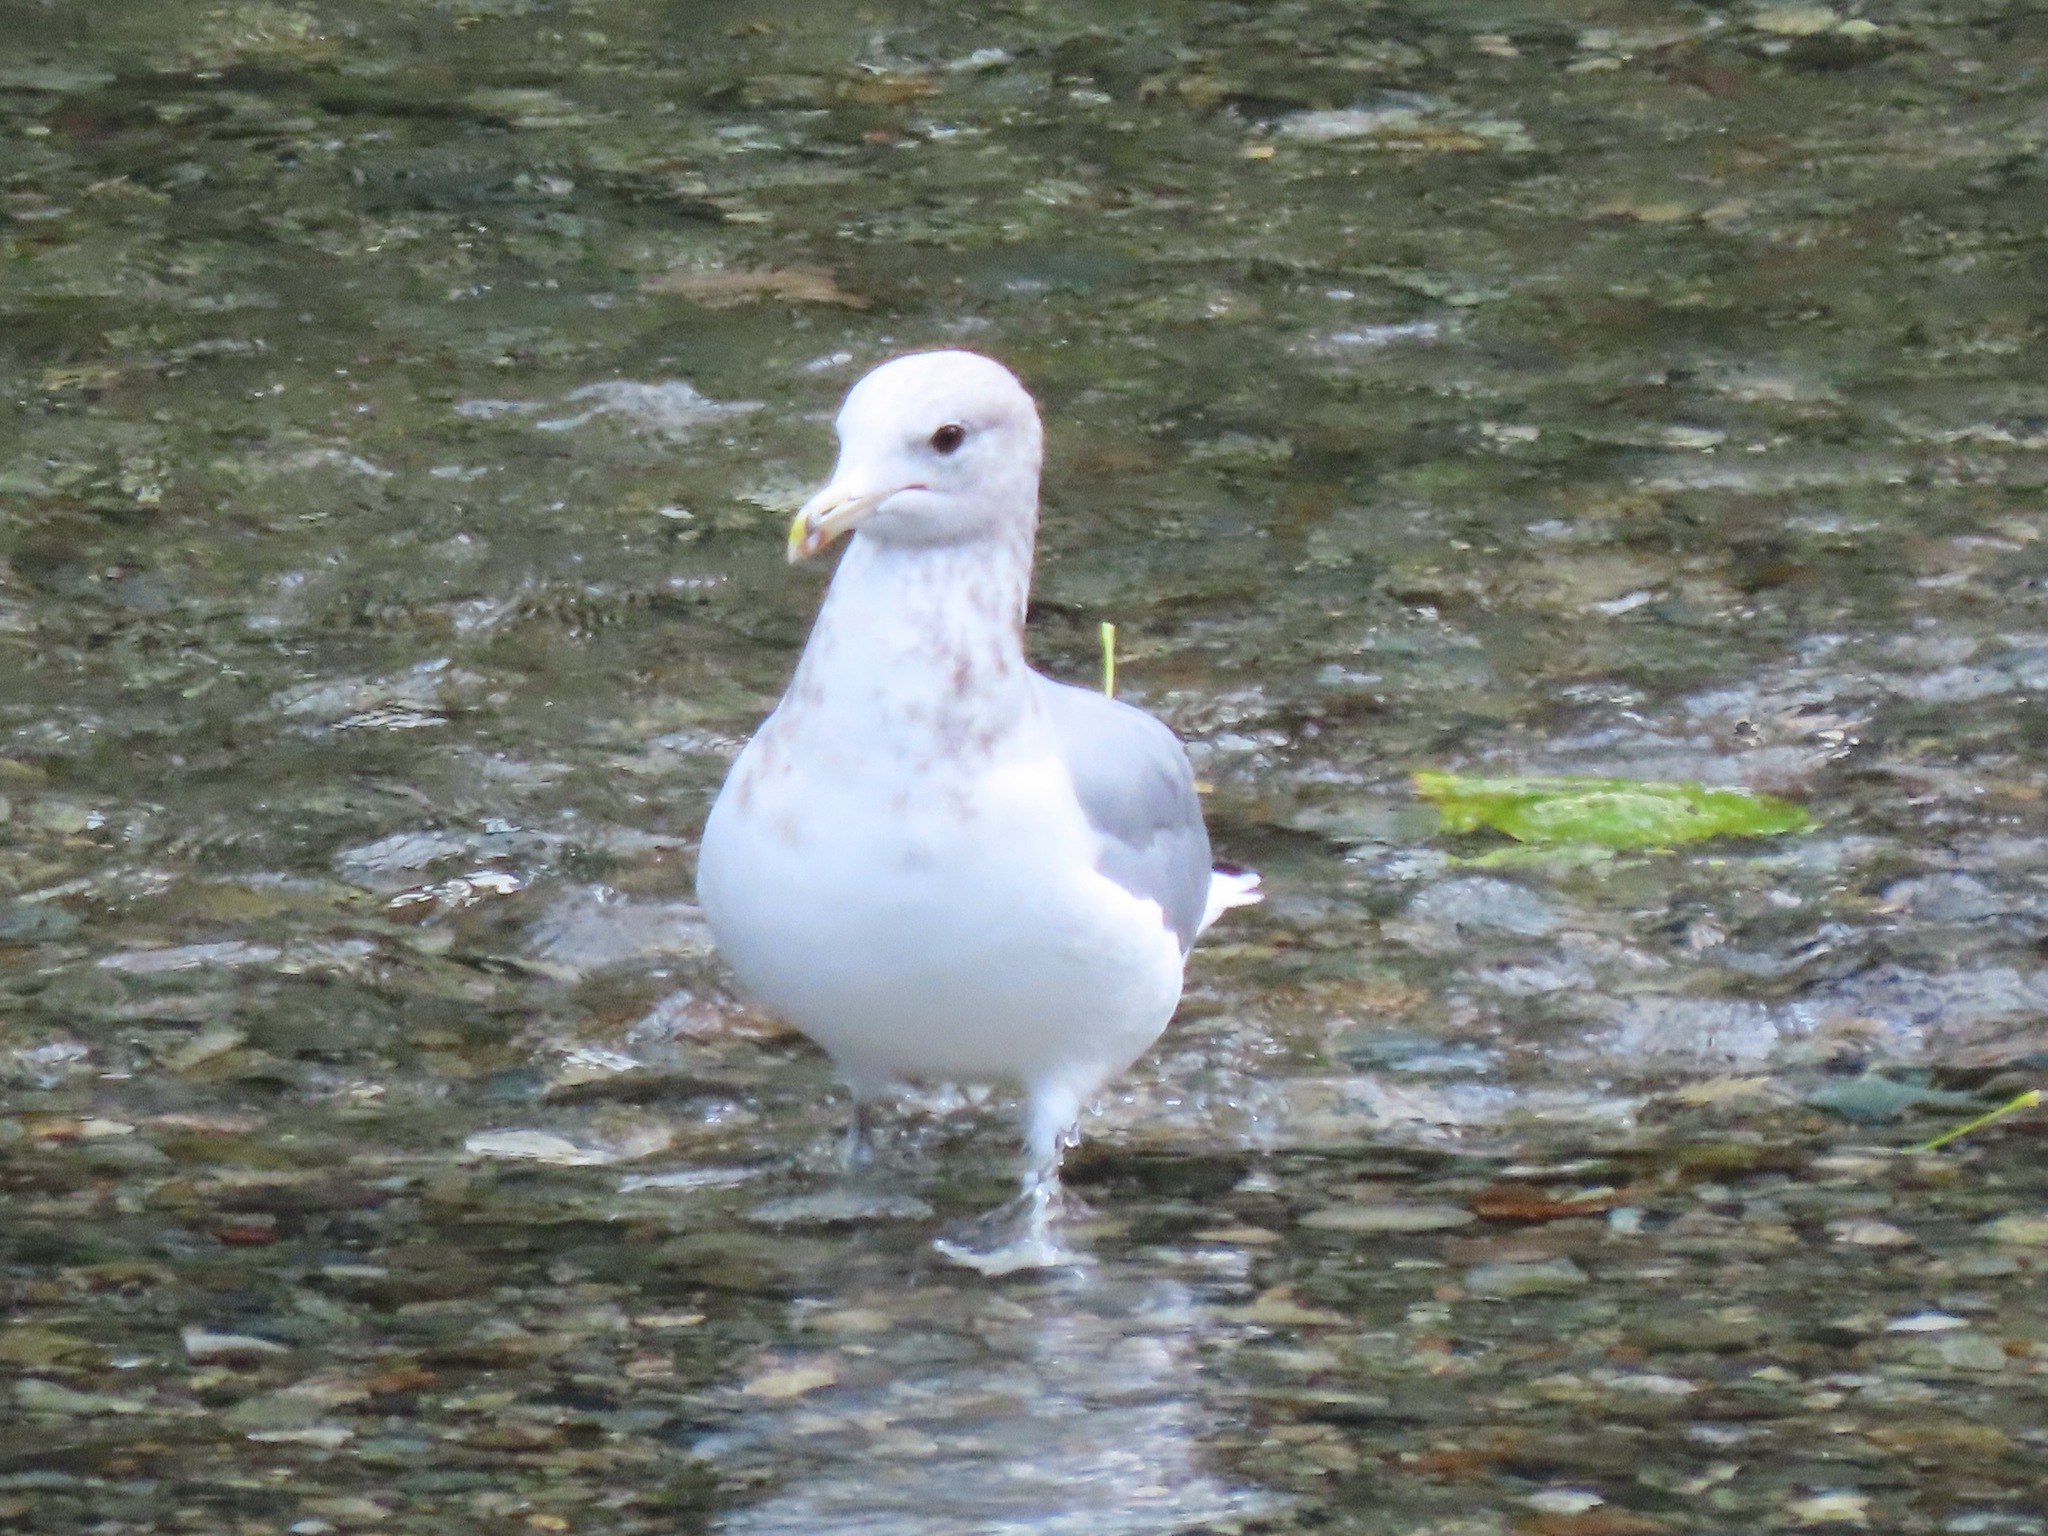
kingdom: Animalia
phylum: Chordata
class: Aves
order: Charadriiformes
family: Laridae
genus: Larus
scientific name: Larus californicus
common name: California gull
